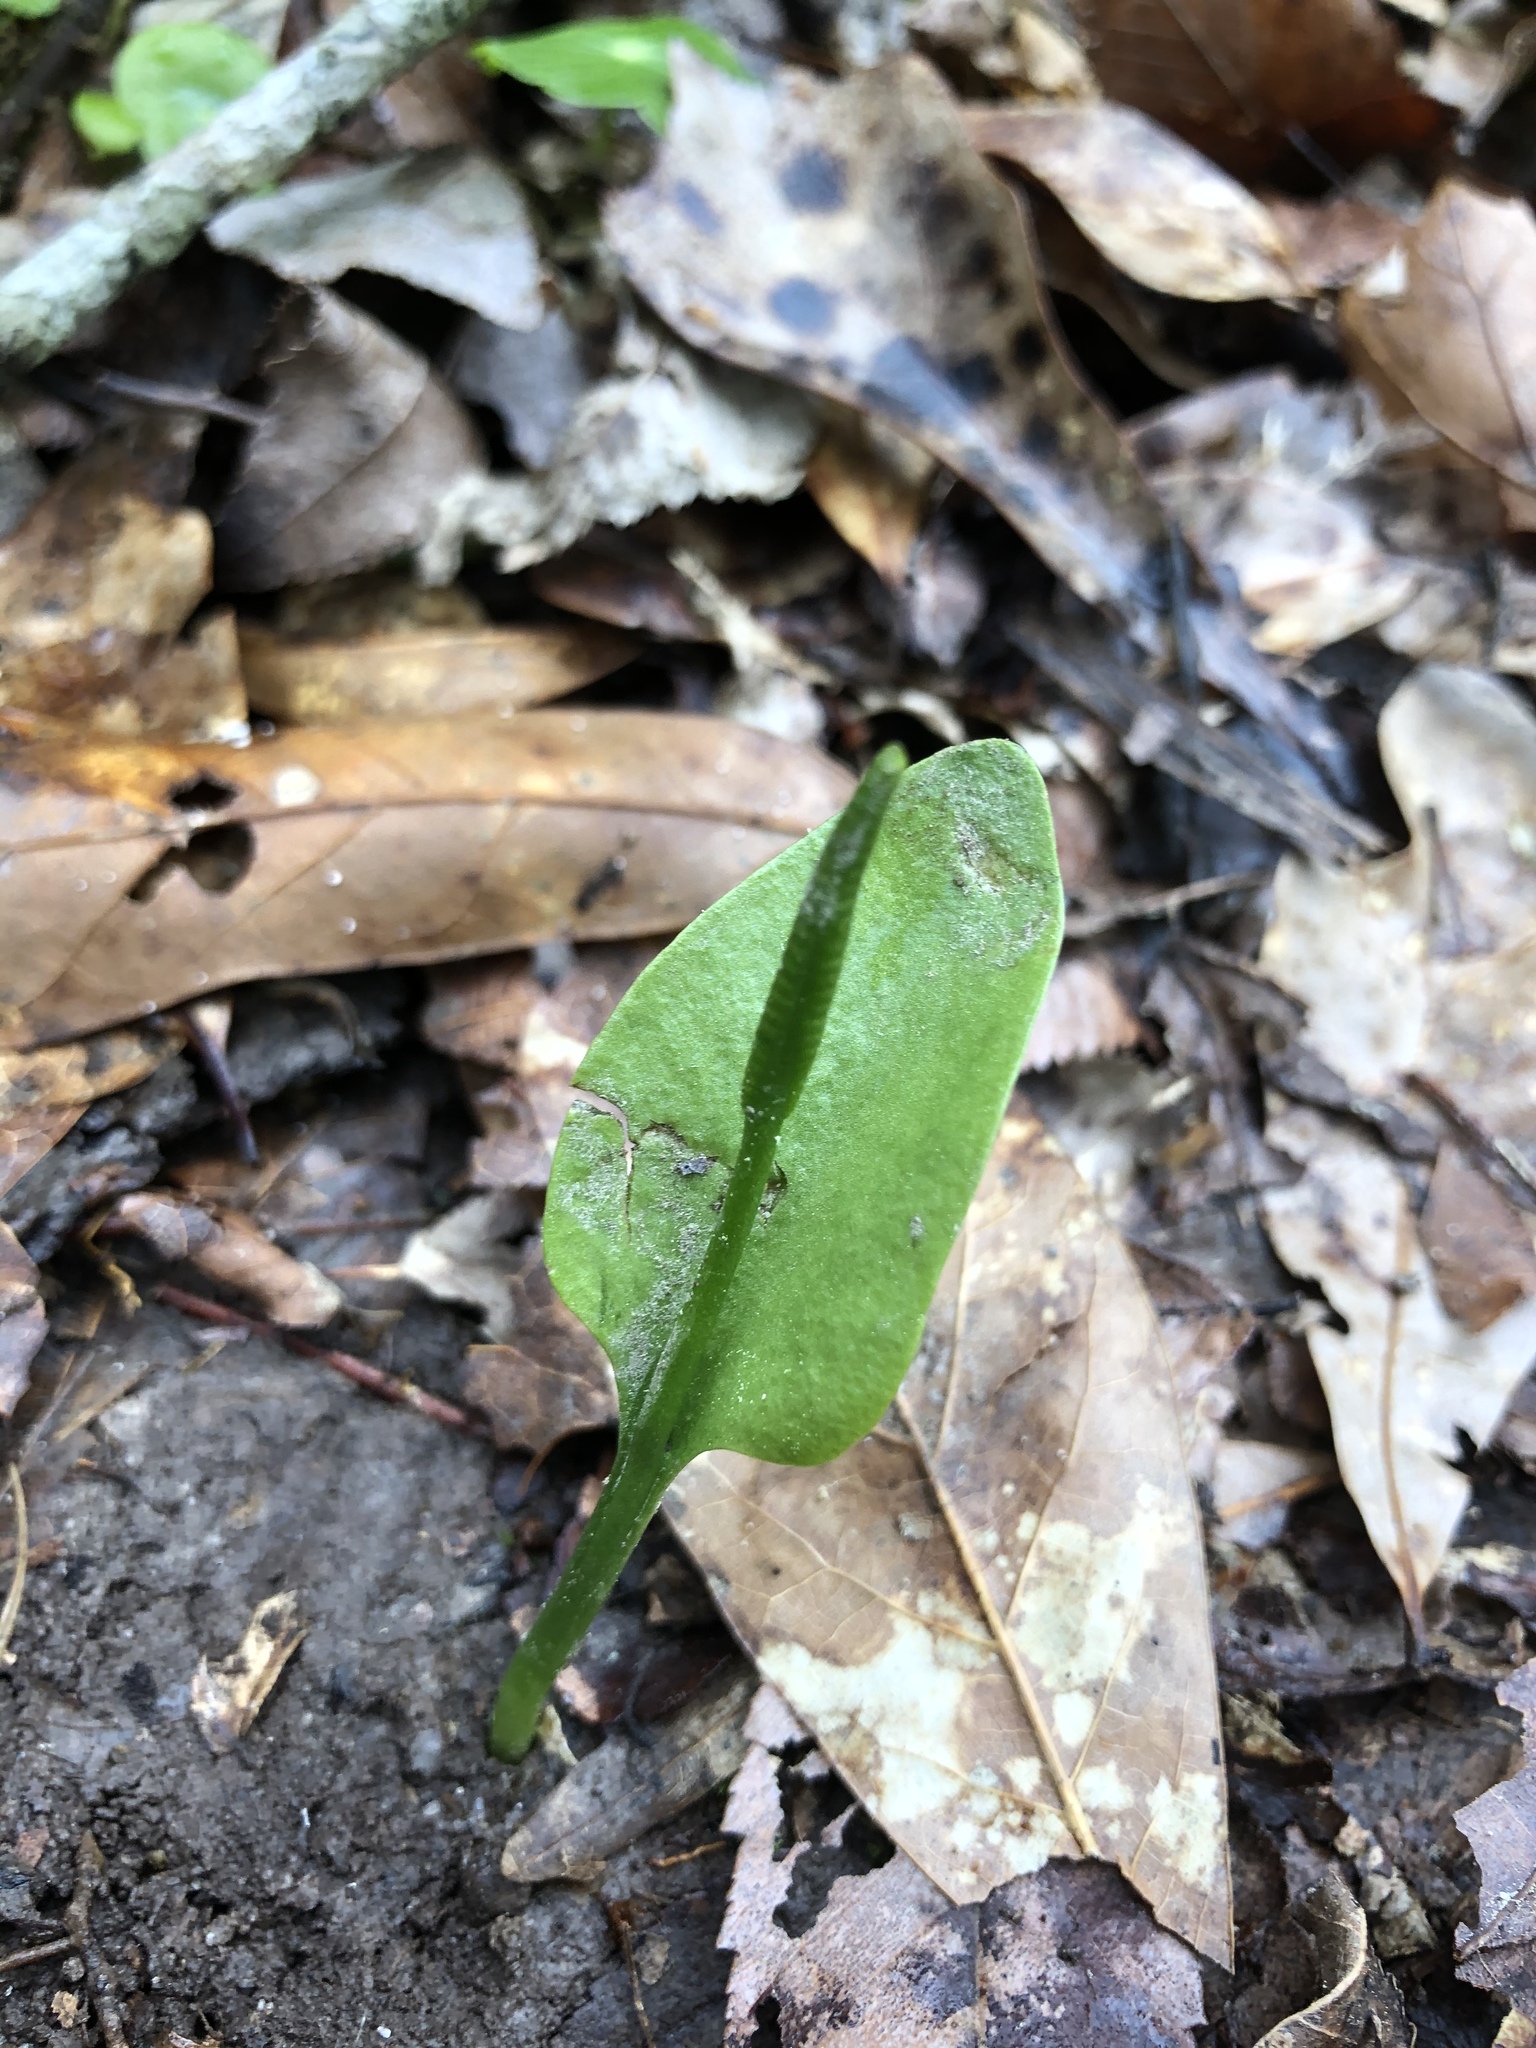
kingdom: Plantae
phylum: Tracheophyta
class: Polypodiopsida
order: Ophioglossales
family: Ophioglossaceae
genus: Ophioglossum
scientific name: Ophioglossum vulgatum
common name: Adder's-tongue
